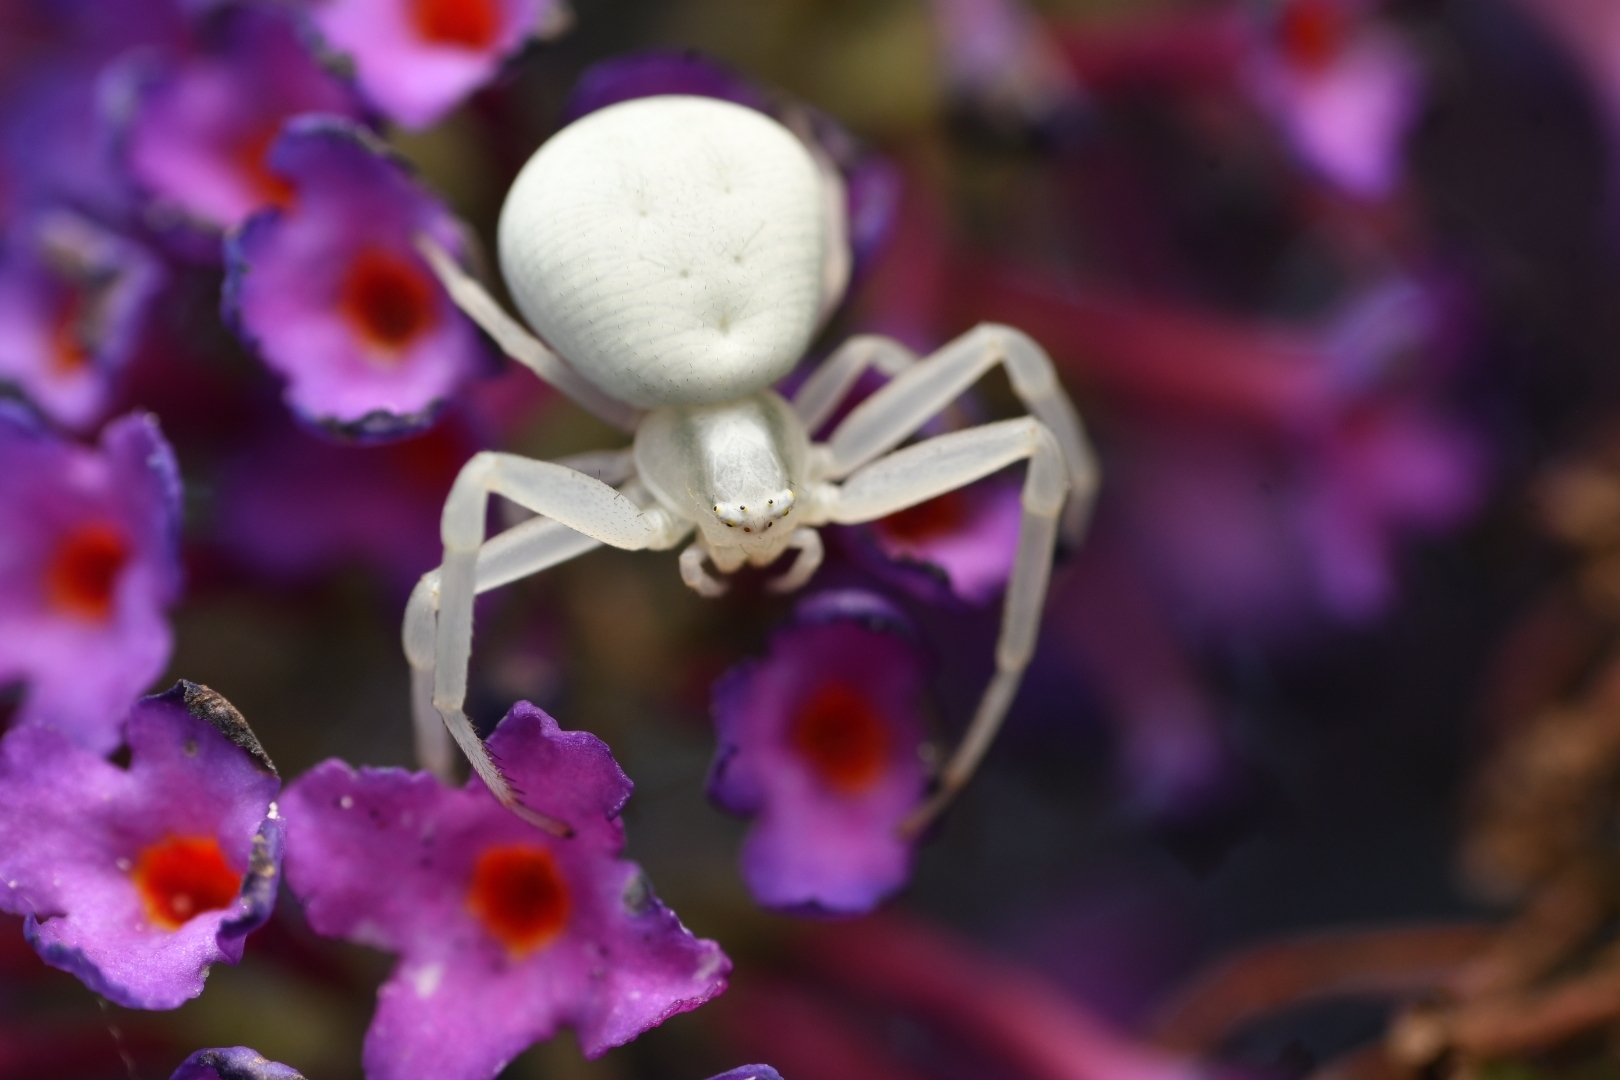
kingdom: Animalia
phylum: Arthropoda
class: Arachnida
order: Araneae
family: Thomisidae
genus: Misumena
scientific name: Misumena vatia
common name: Goldenrod crab spider
